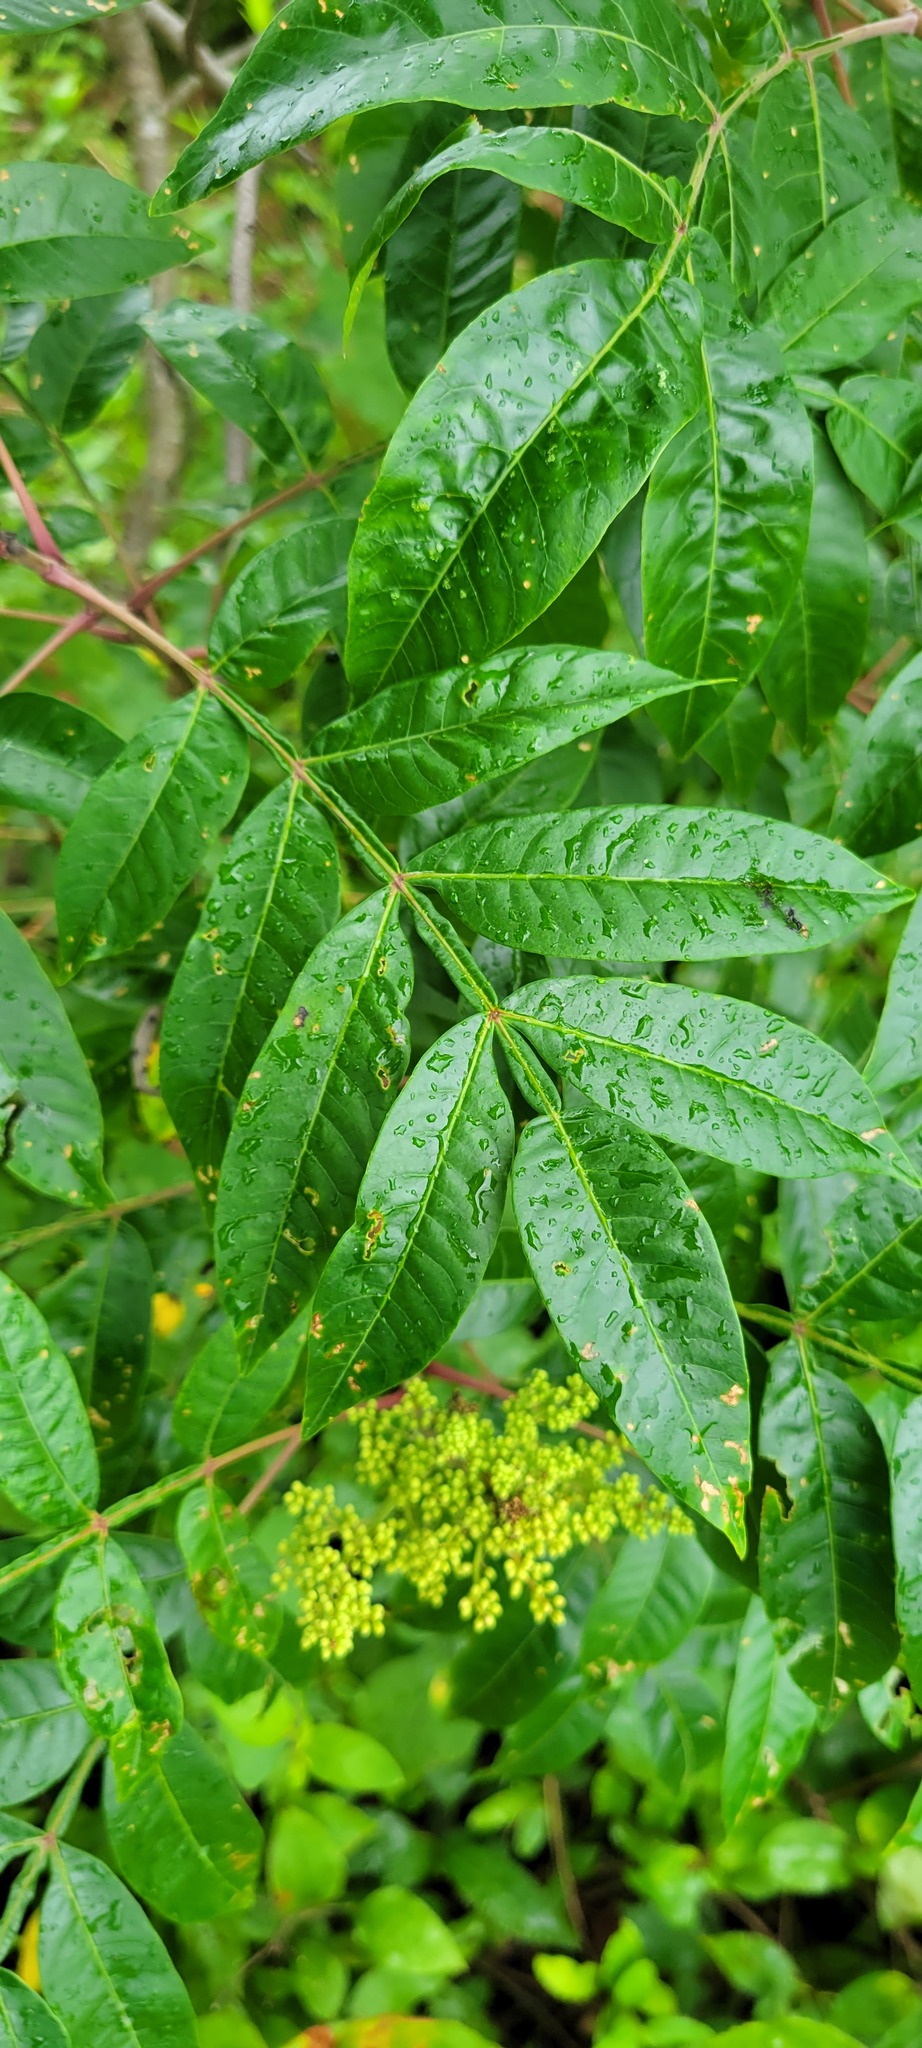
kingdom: Plantae
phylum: Tracheophyta
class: Magnoliopsida
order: Sapindales
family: Anacardiaceae
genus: Rhus
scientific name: Rhus copallina
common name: Shining sumac
